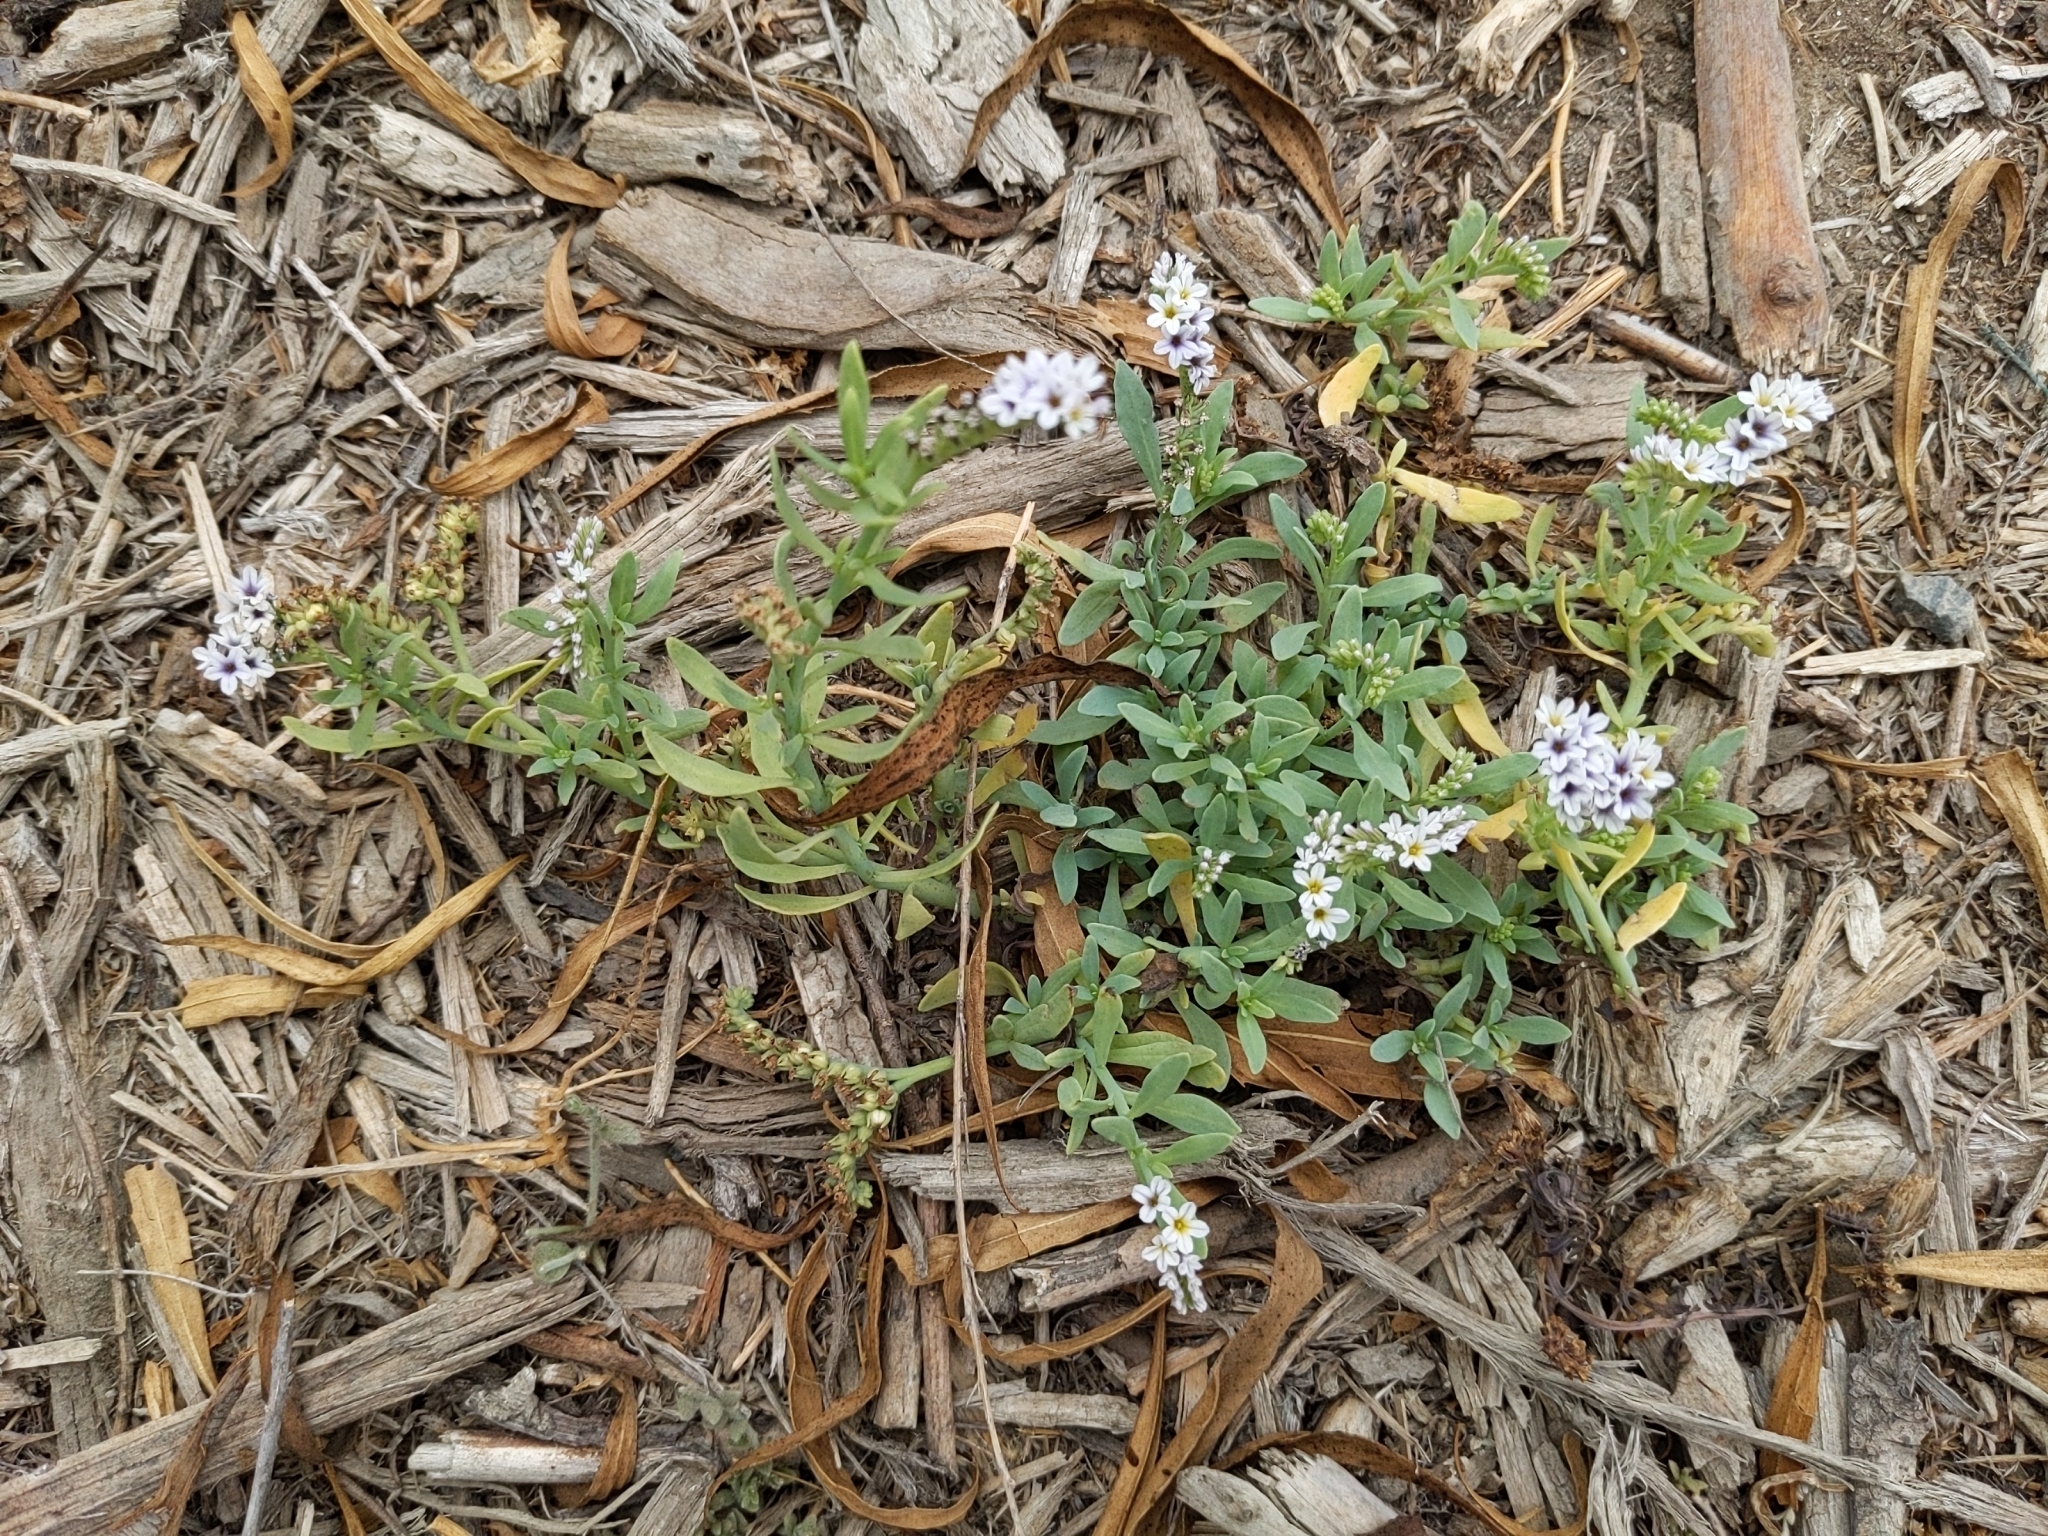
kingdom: Plantae
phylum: Tracheophyta
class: Magnoliopsida
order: Boraginales
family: Heliotropiaceae
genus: Heliotropium
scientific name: Heliotropium curassavicum
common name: Seaside heliotrope
